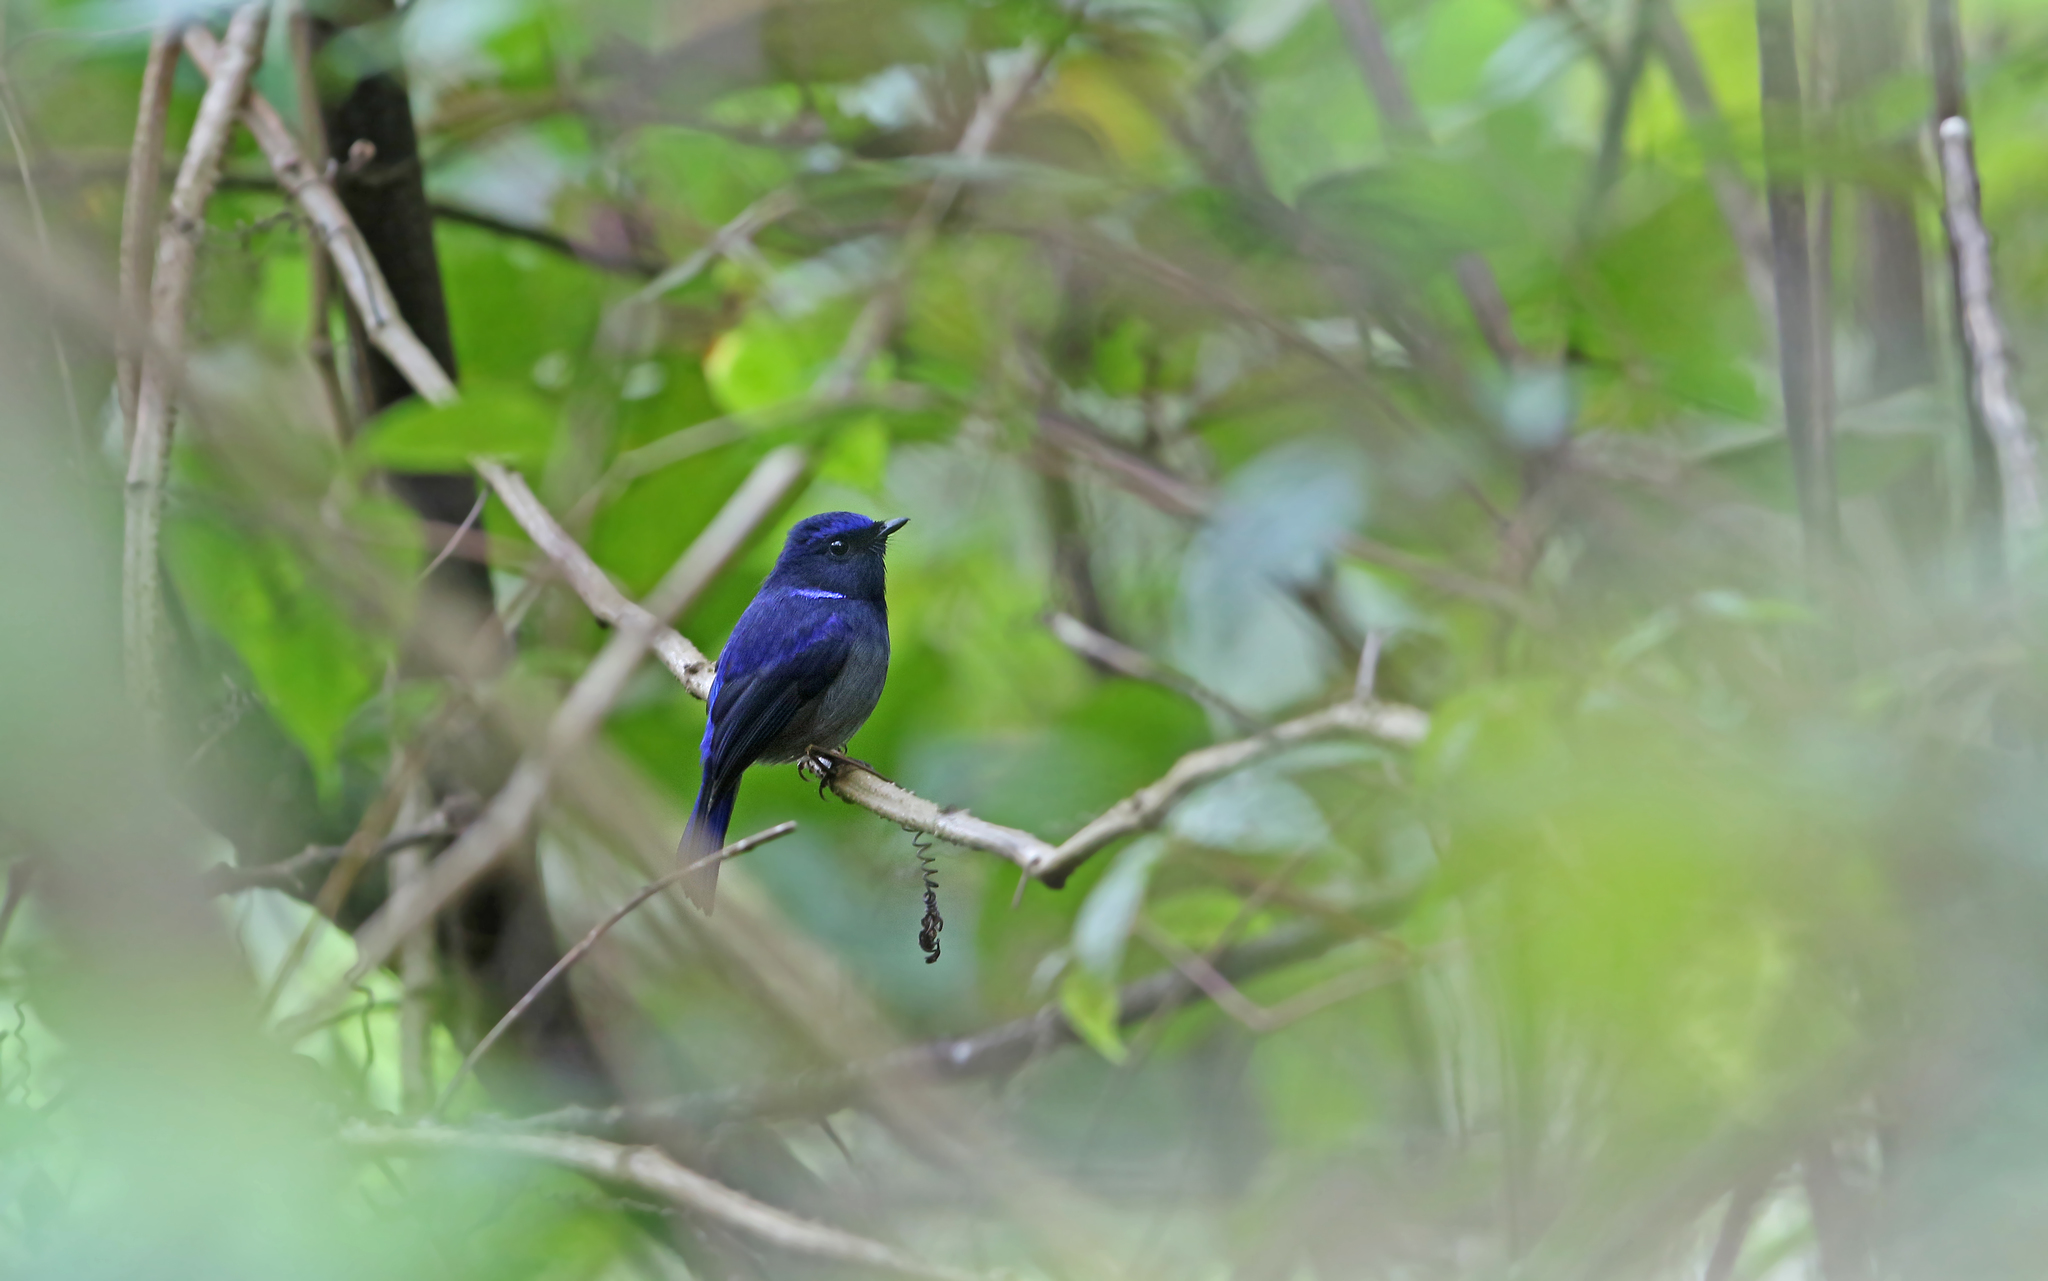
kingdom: Animalia
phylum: Chordata
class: Aves
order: Passeriformes
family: Muscicapidae
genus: Niltava
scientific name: Niltava macgrigoriae
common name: Small niltava
